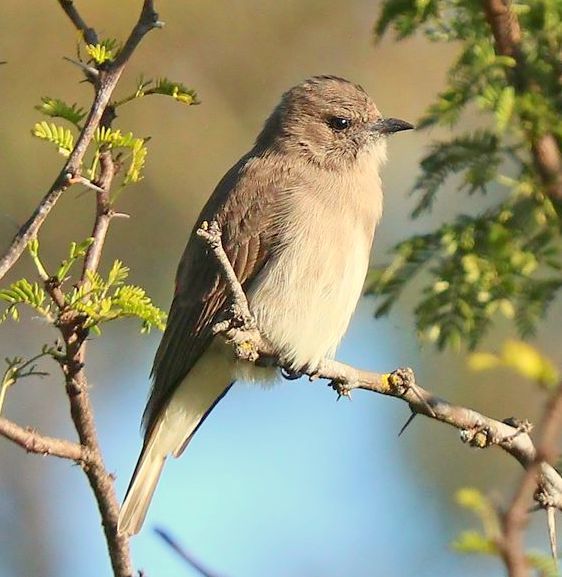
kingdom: Animalia
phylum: Chordata
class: Aves
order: Piciformes
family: Indicatoridae
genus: Prodotiscus
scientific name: Prodotiscus regulus
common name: Brown-backed honeybird
